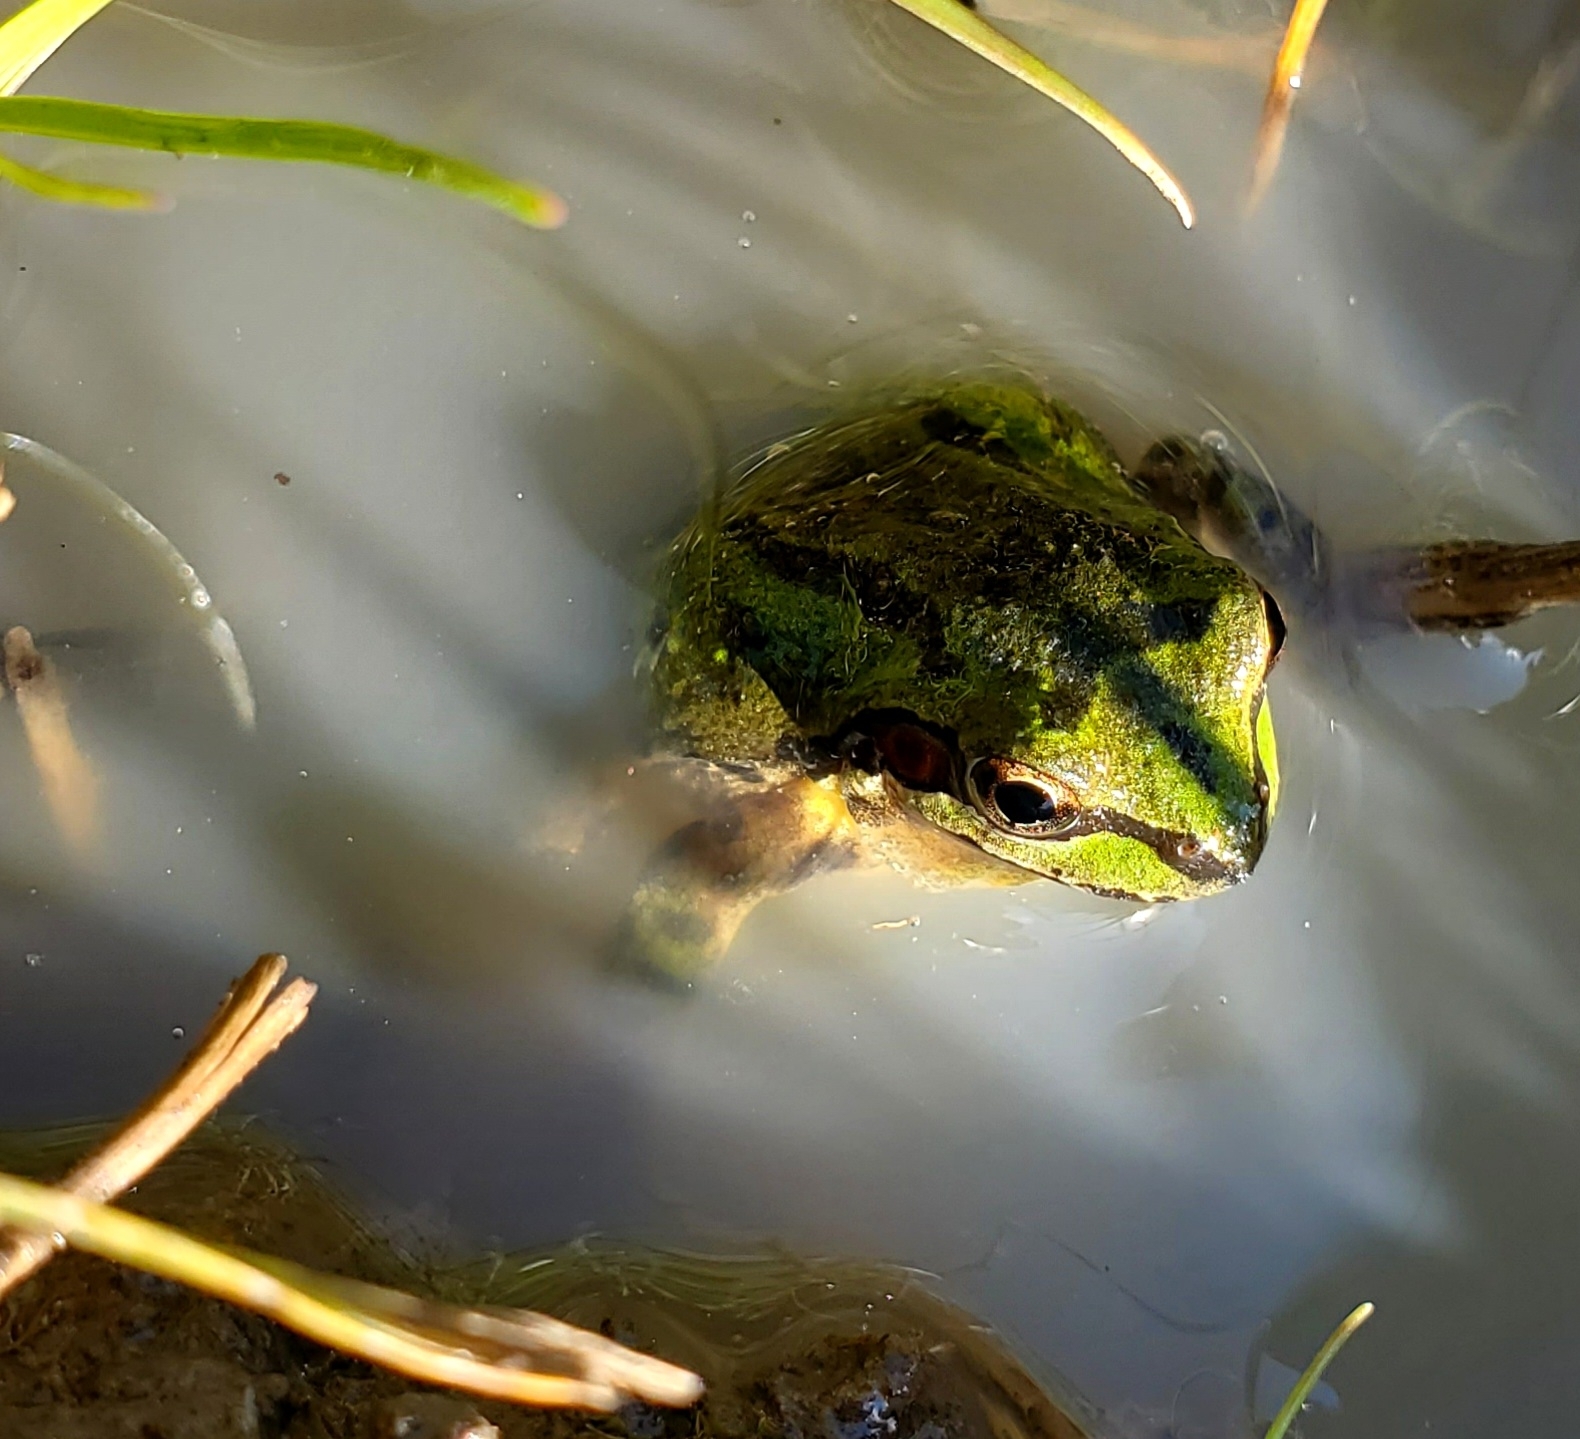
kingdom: Animalia
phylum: Chordata
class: Amphibia
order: Anura
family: Hylidae
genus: Pseudacris
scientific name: Pseudacris regilla
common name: Pacific chorus frog
